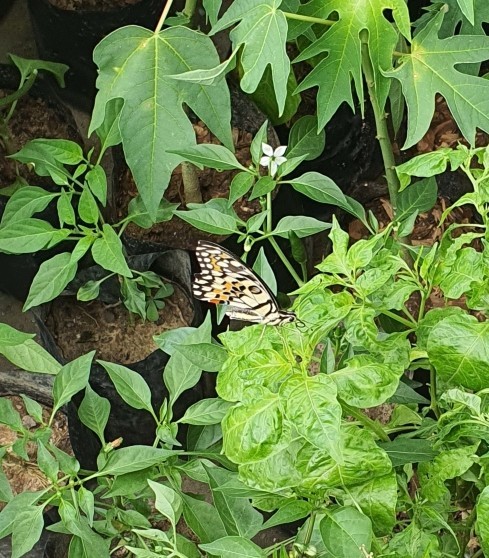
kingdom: Animalia
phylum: Arthropoda
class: Insecta
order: Lepidoptera
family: Papilionidae
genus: Papilio
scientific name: Papilio demoleus
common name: Lime butterfly
